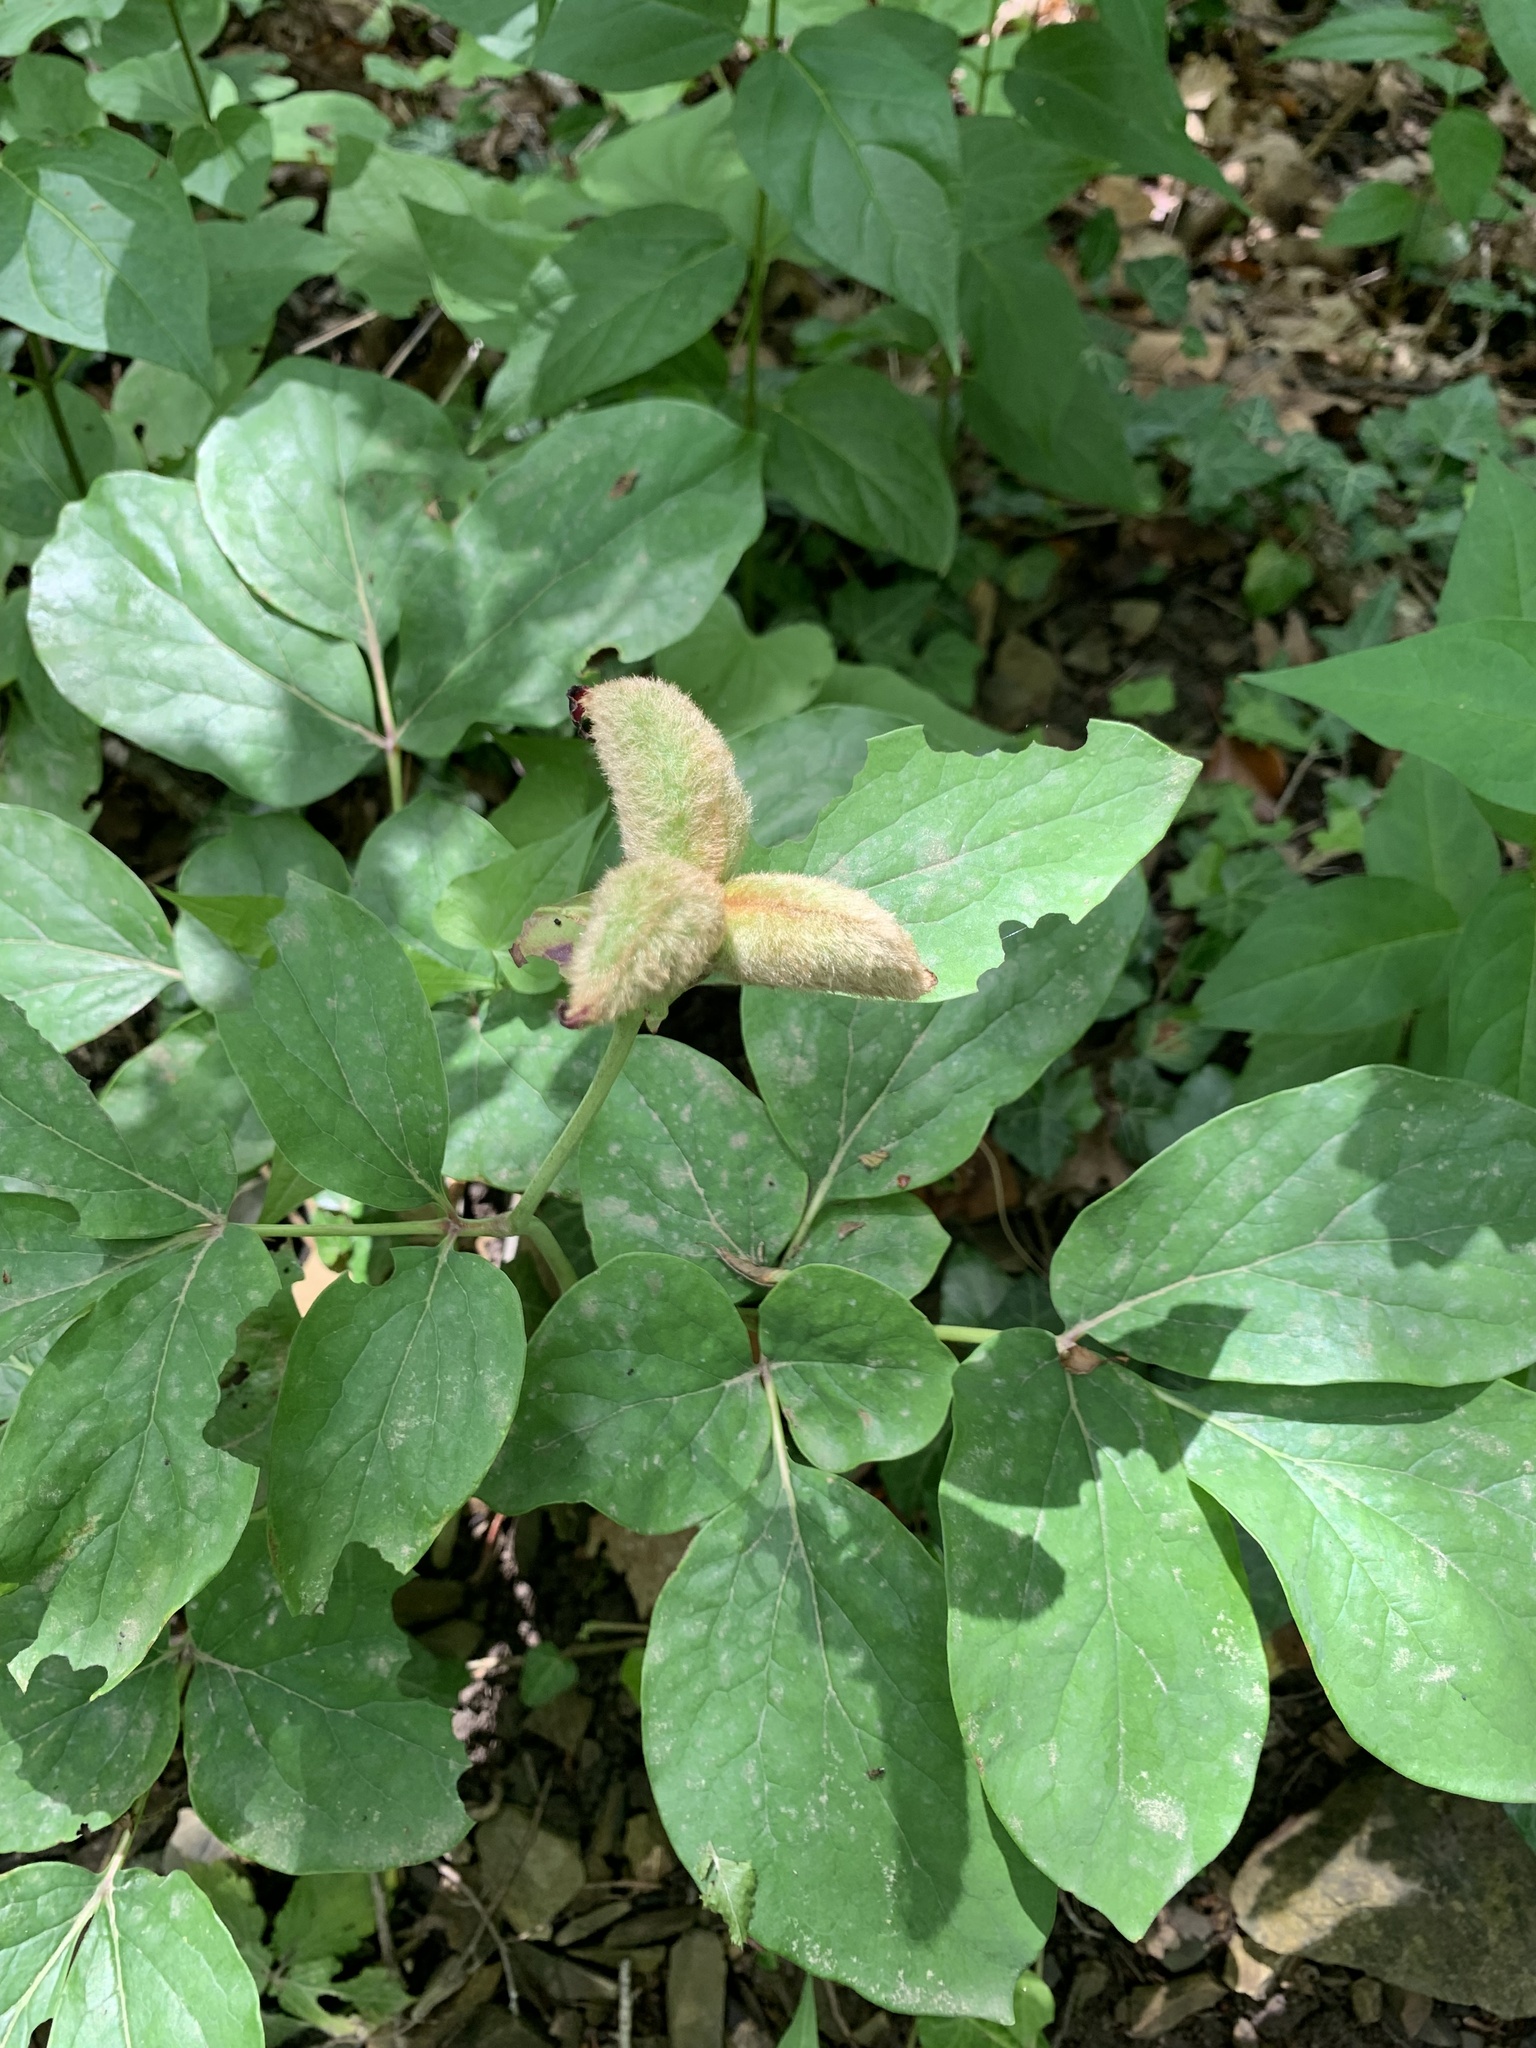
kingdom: Plantae
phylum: Tracheophyta
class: Magnoliopsida
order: Saxifragales
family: Paeoniaceae
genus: Paeonia
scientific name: Paeonia caucasica
